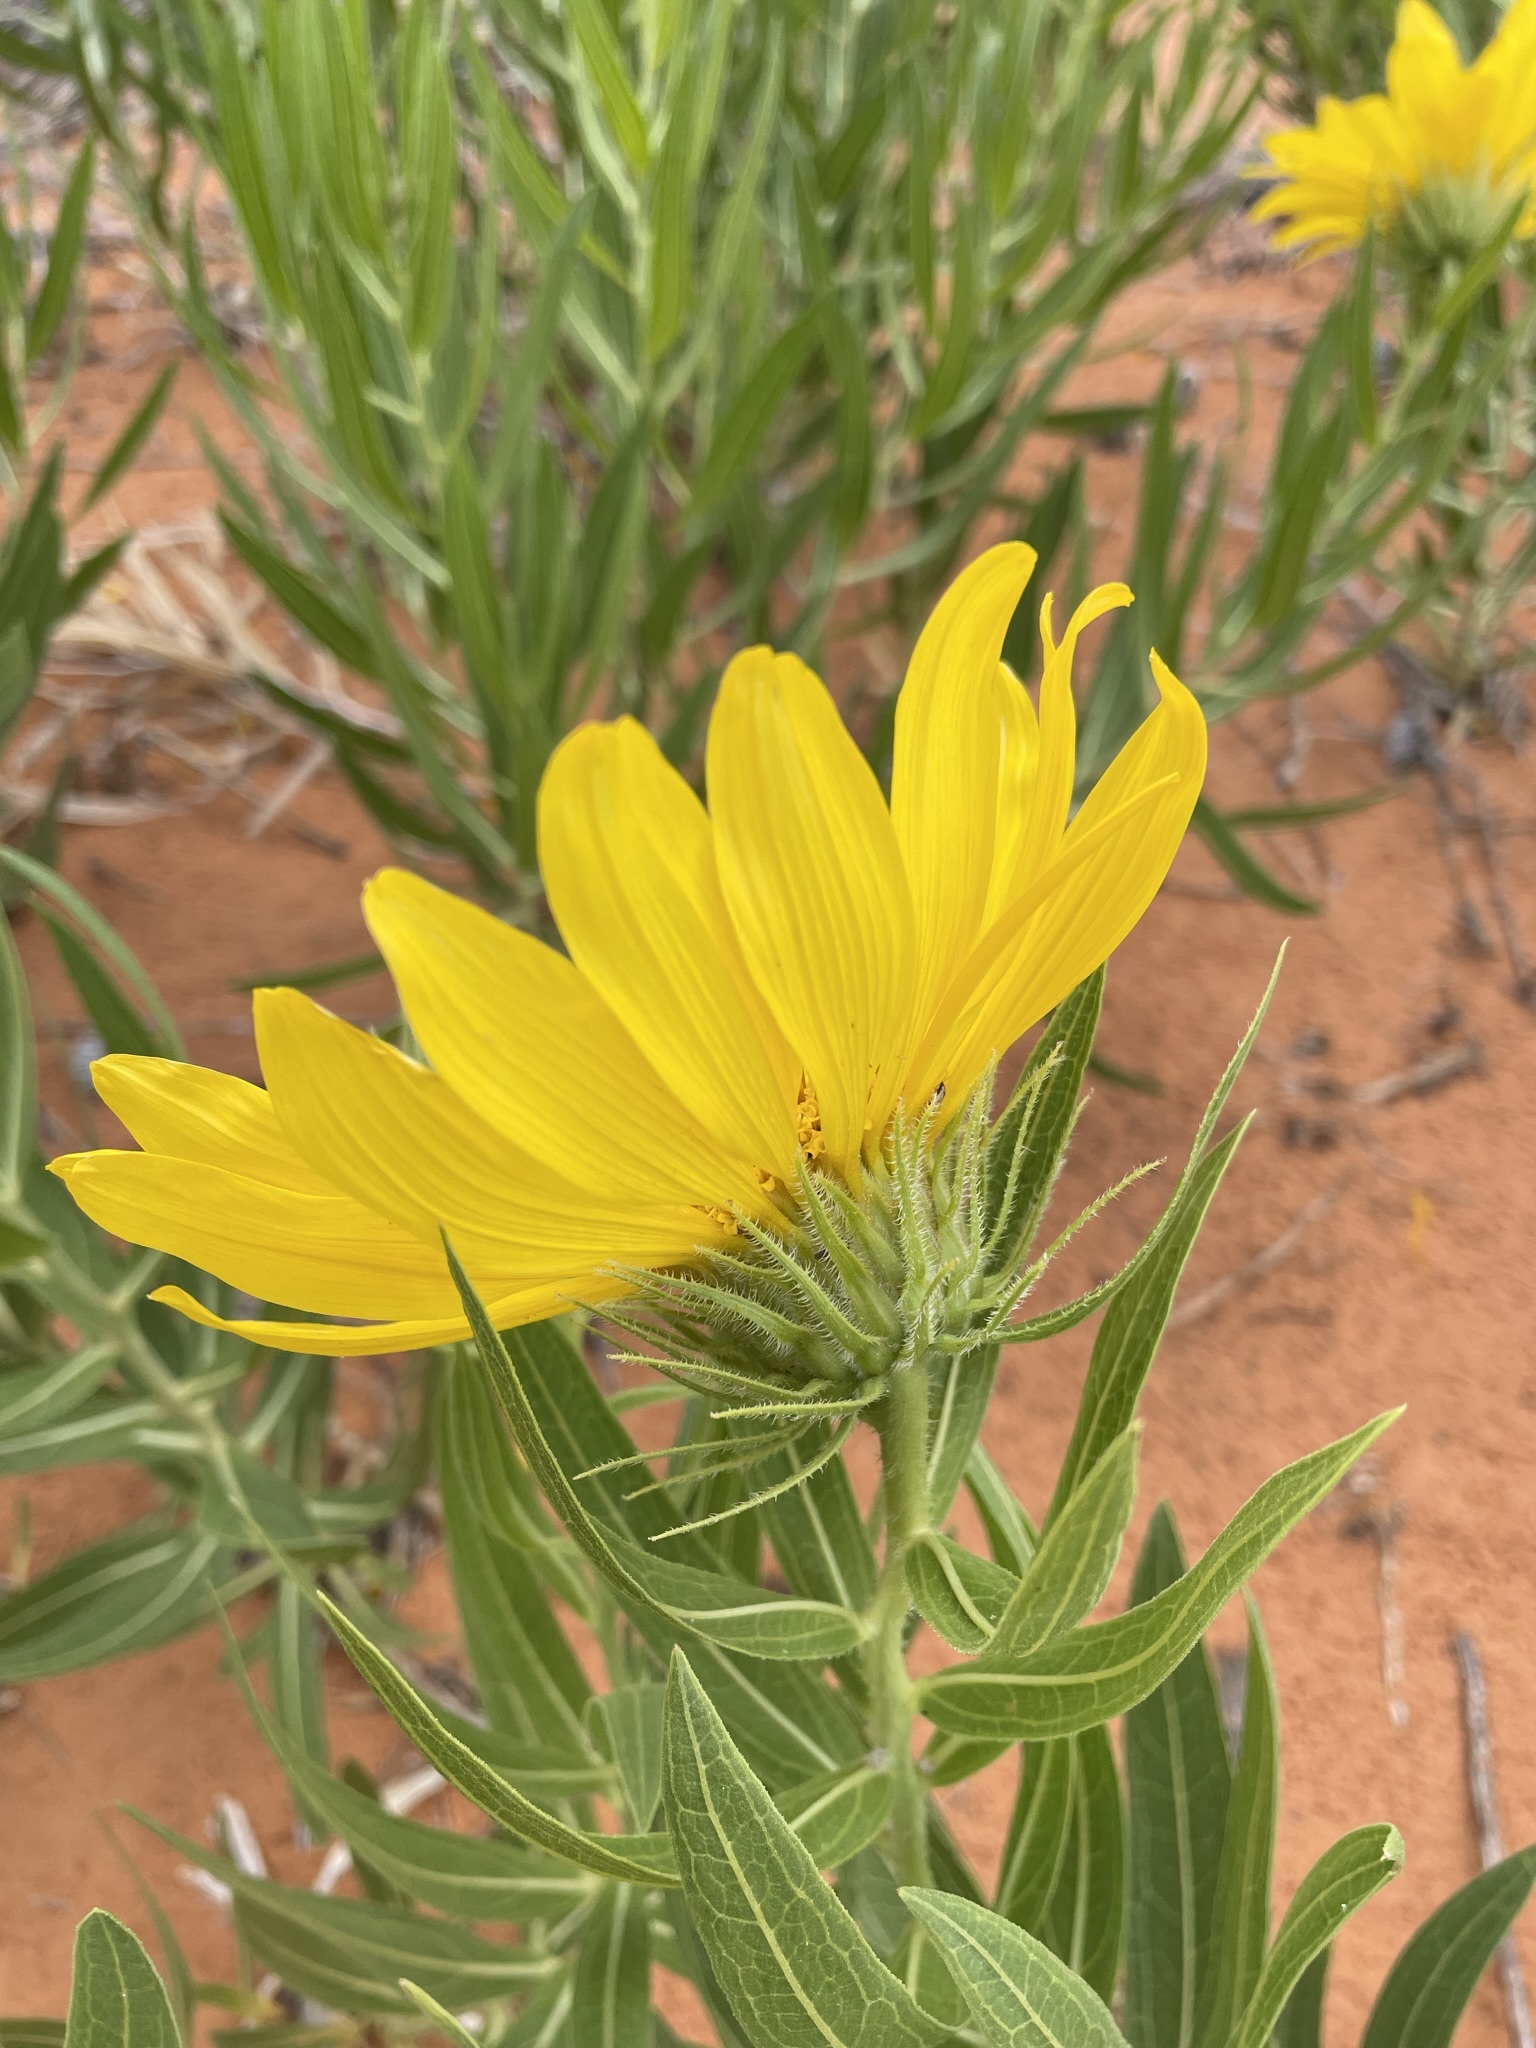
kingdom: Plantae
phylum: Tracheophyta
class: Magnoliopsida
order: Asterales
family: Asteraceae
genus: Scabrethia
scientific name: Scabrethia scabra
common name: Rough mules's-ears
